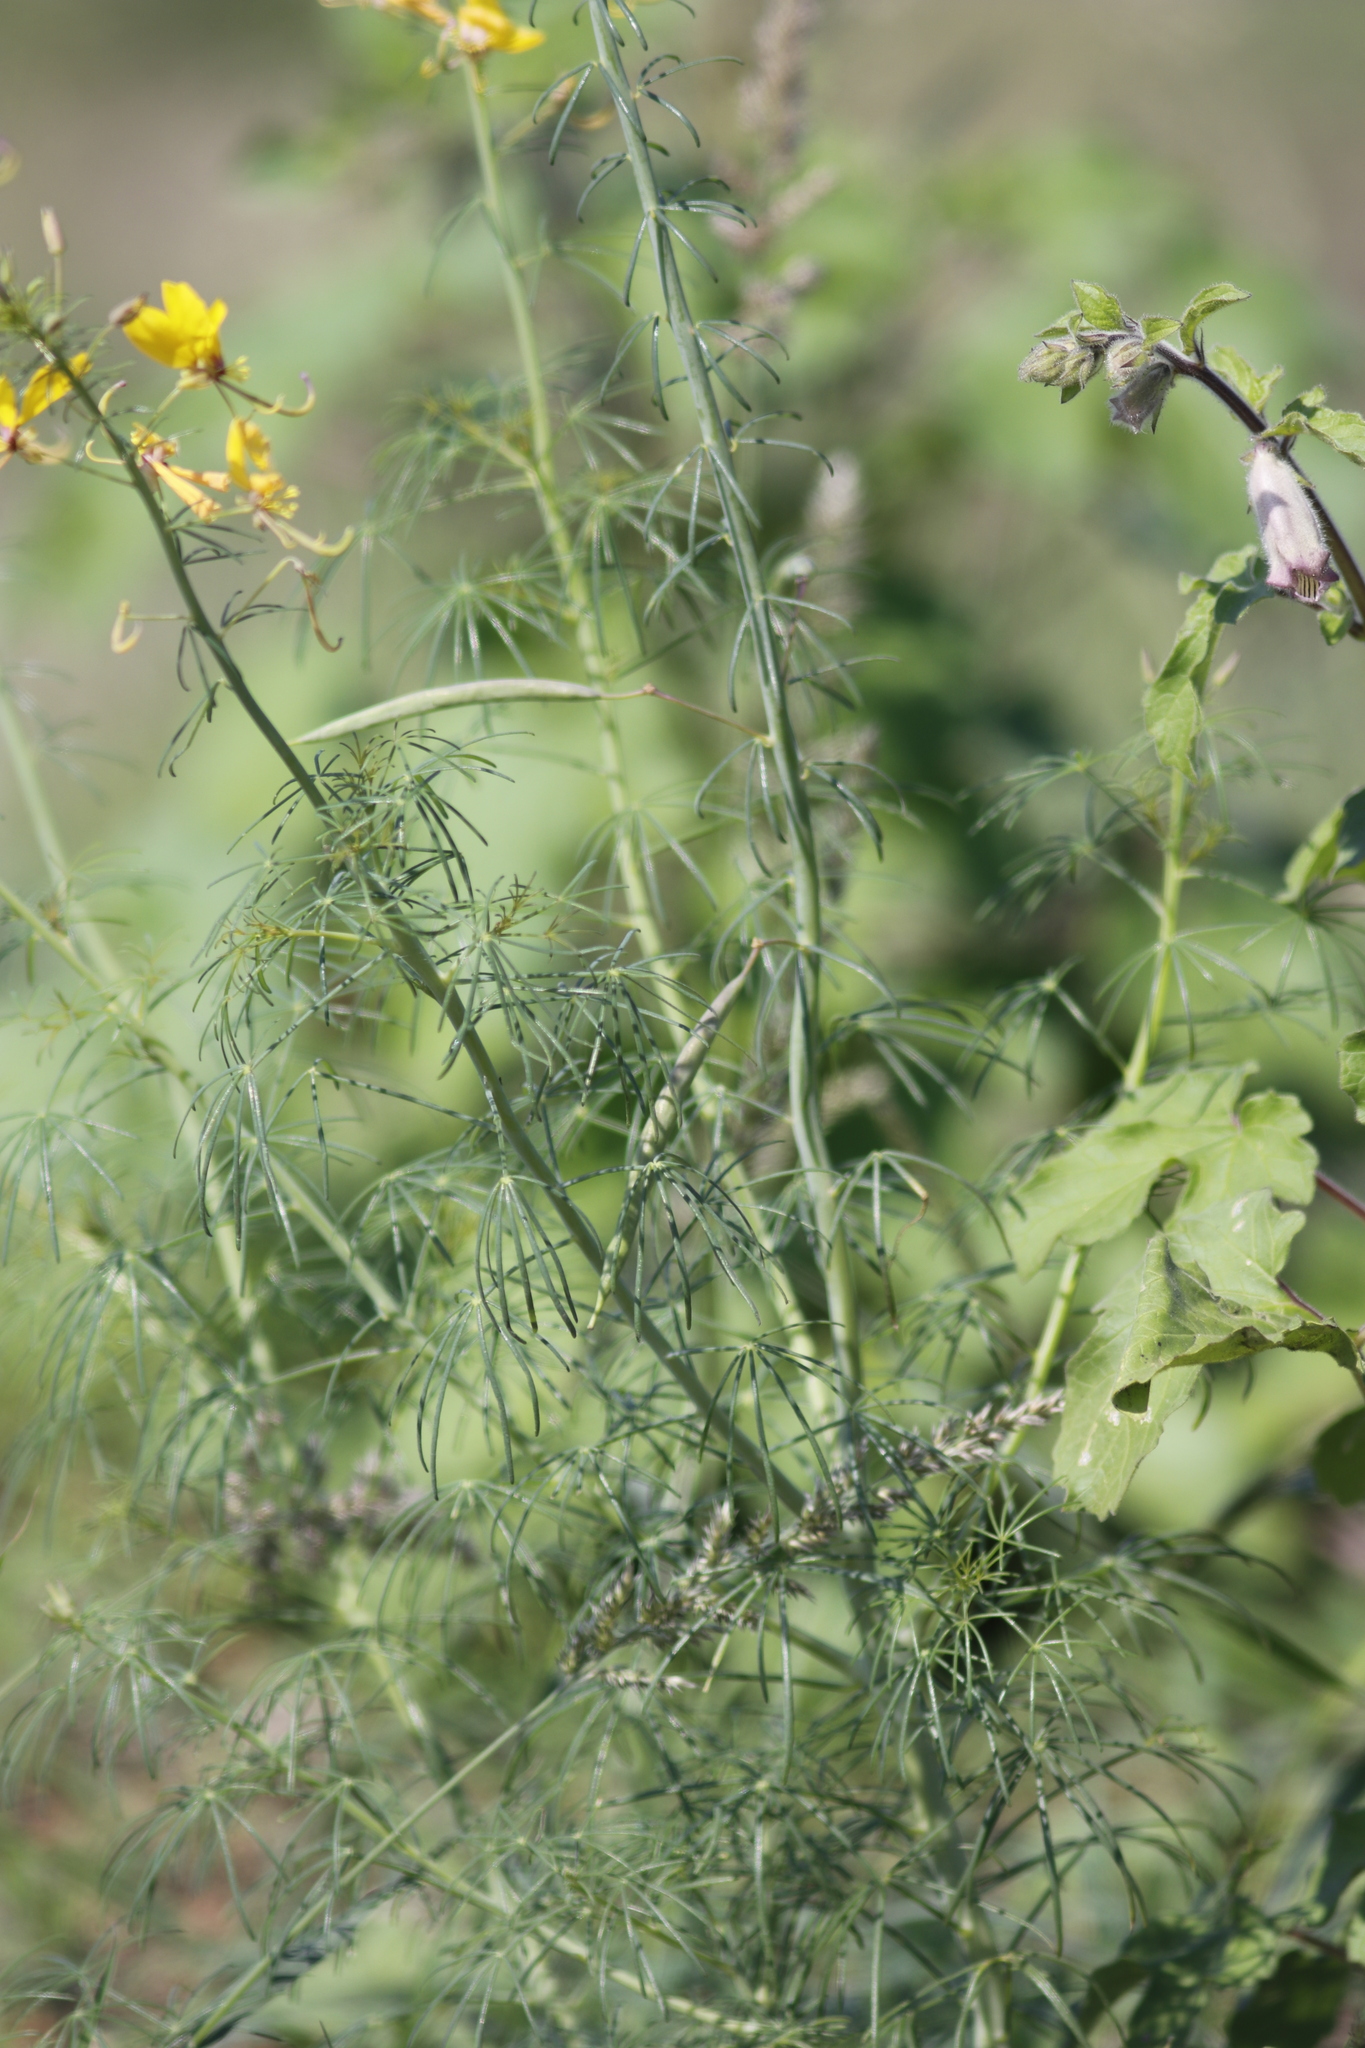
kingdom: Plantae
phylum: Tracheophyta
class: Magnoliopsida
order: Brassicales
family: Cleomaceae
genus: Coalisina
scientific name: Coalisina
